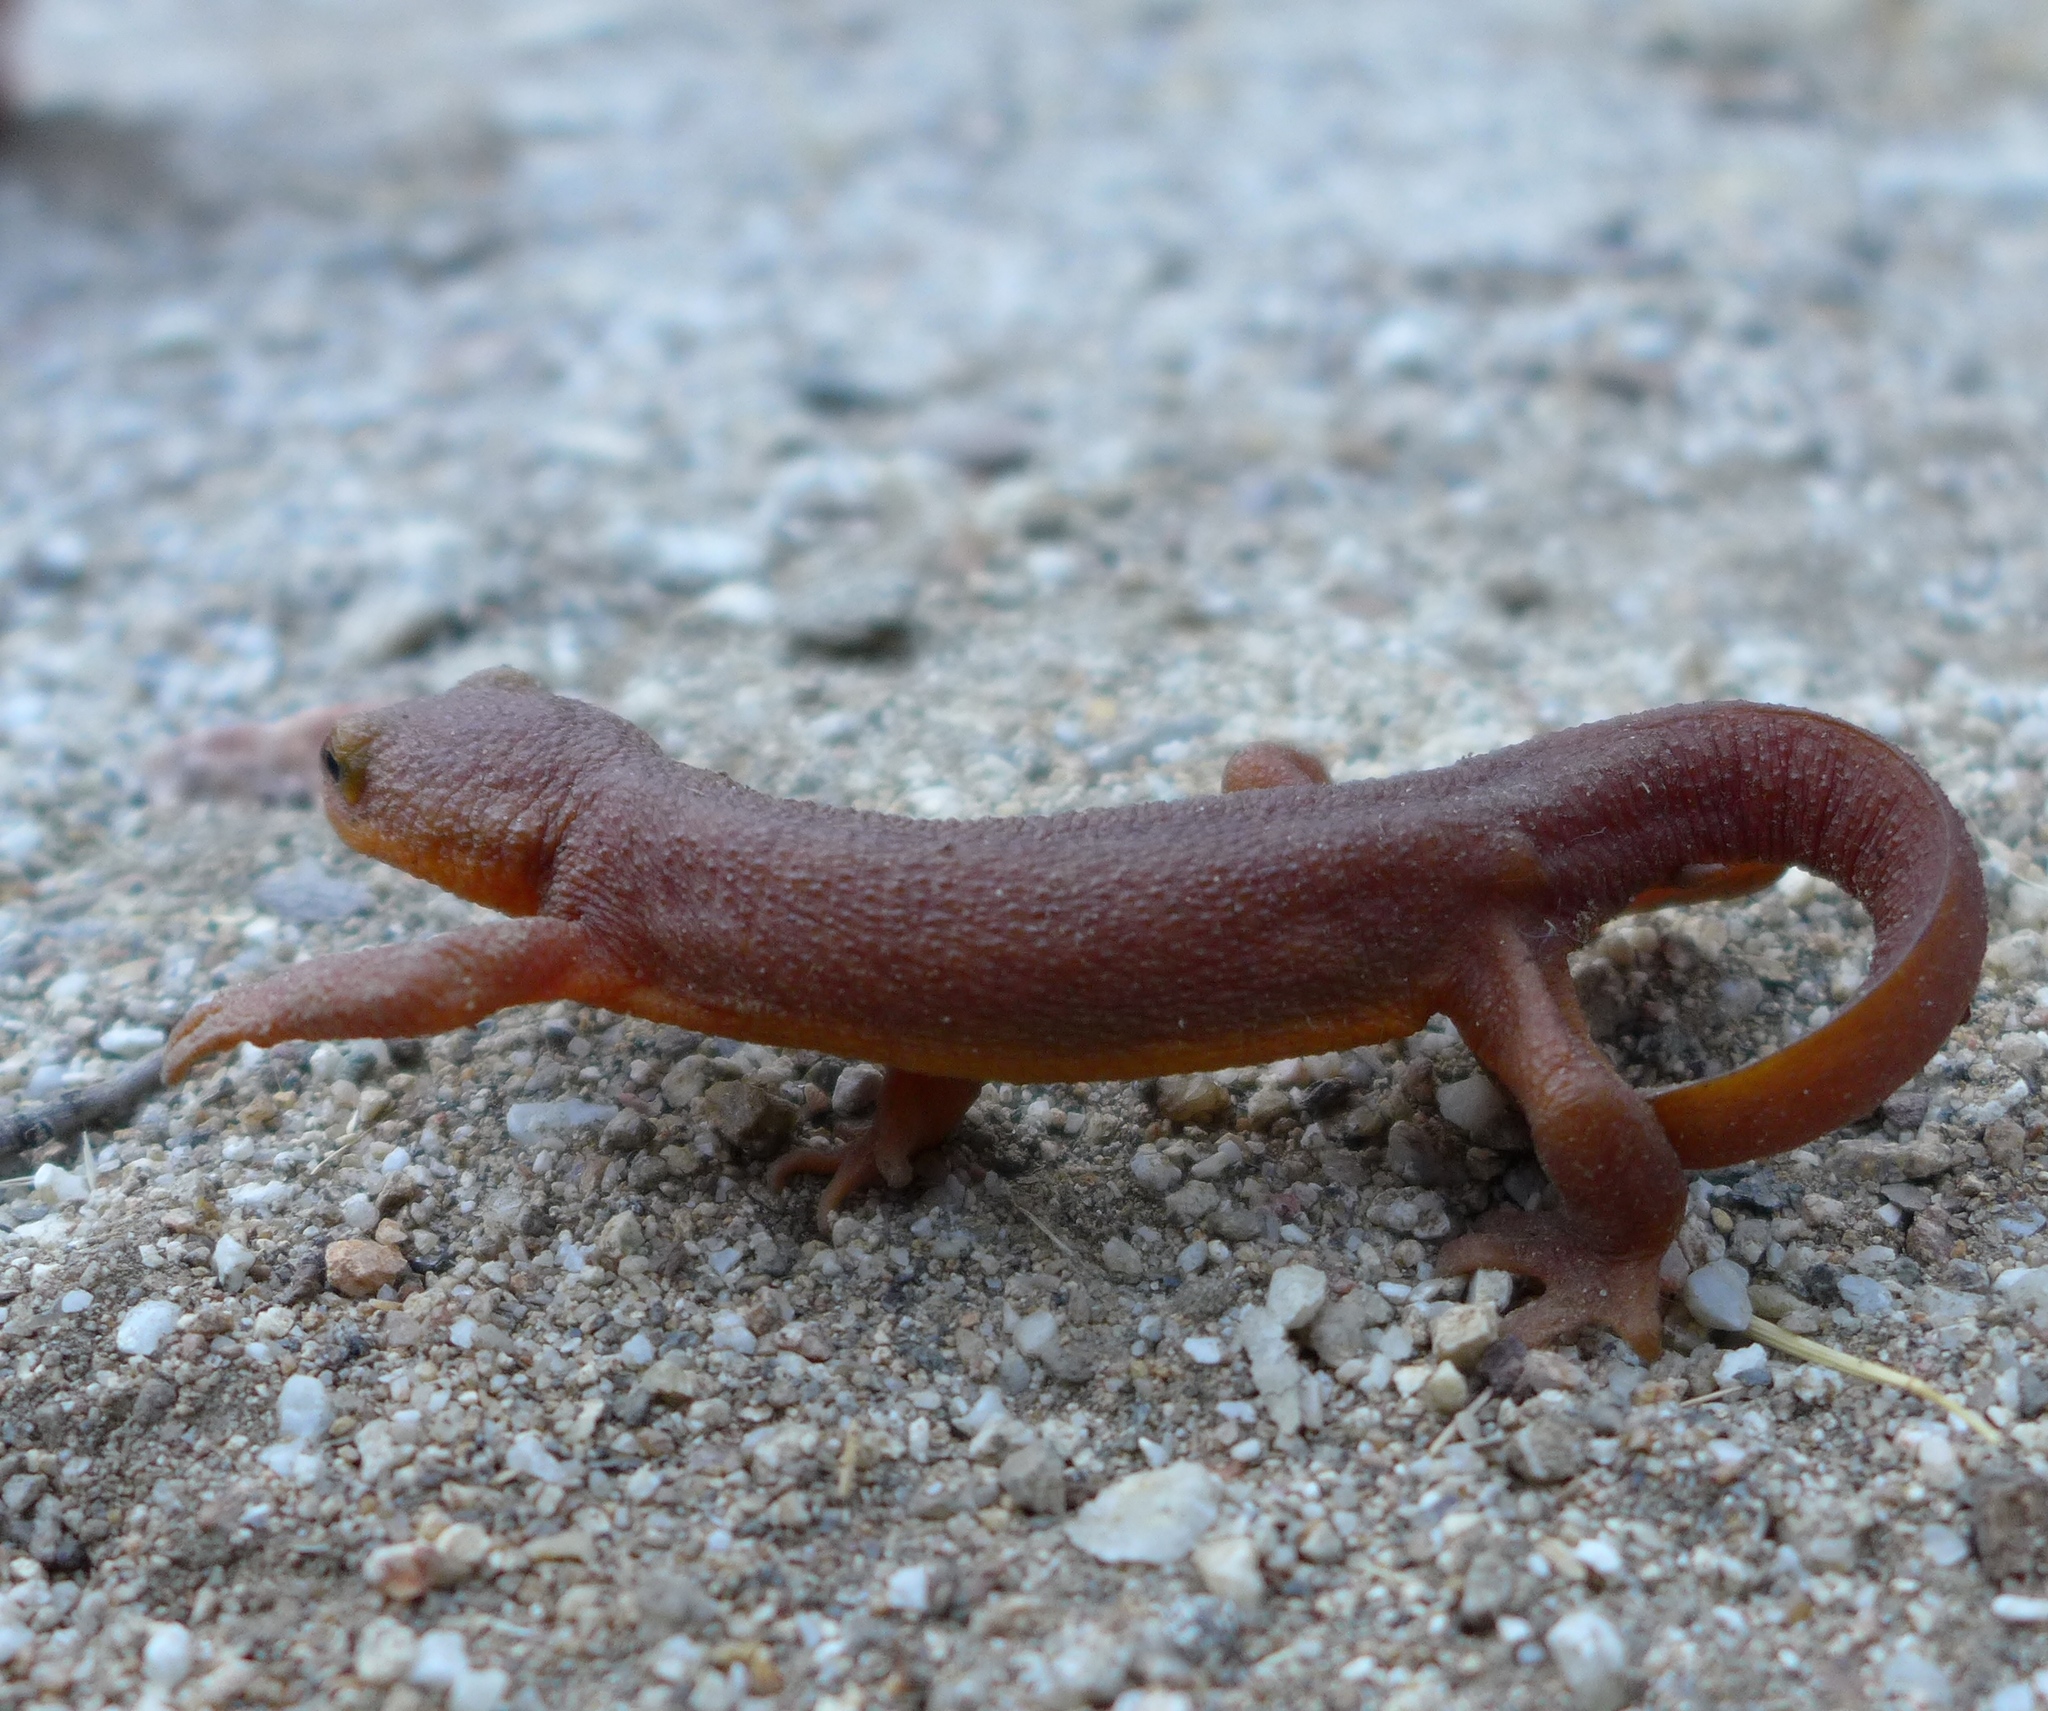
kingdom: Animalia
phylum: Chordata
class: Amphibia
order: Caudata
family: Salamandridae
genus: Taricha
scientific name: Taricha torosa
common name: California newt
